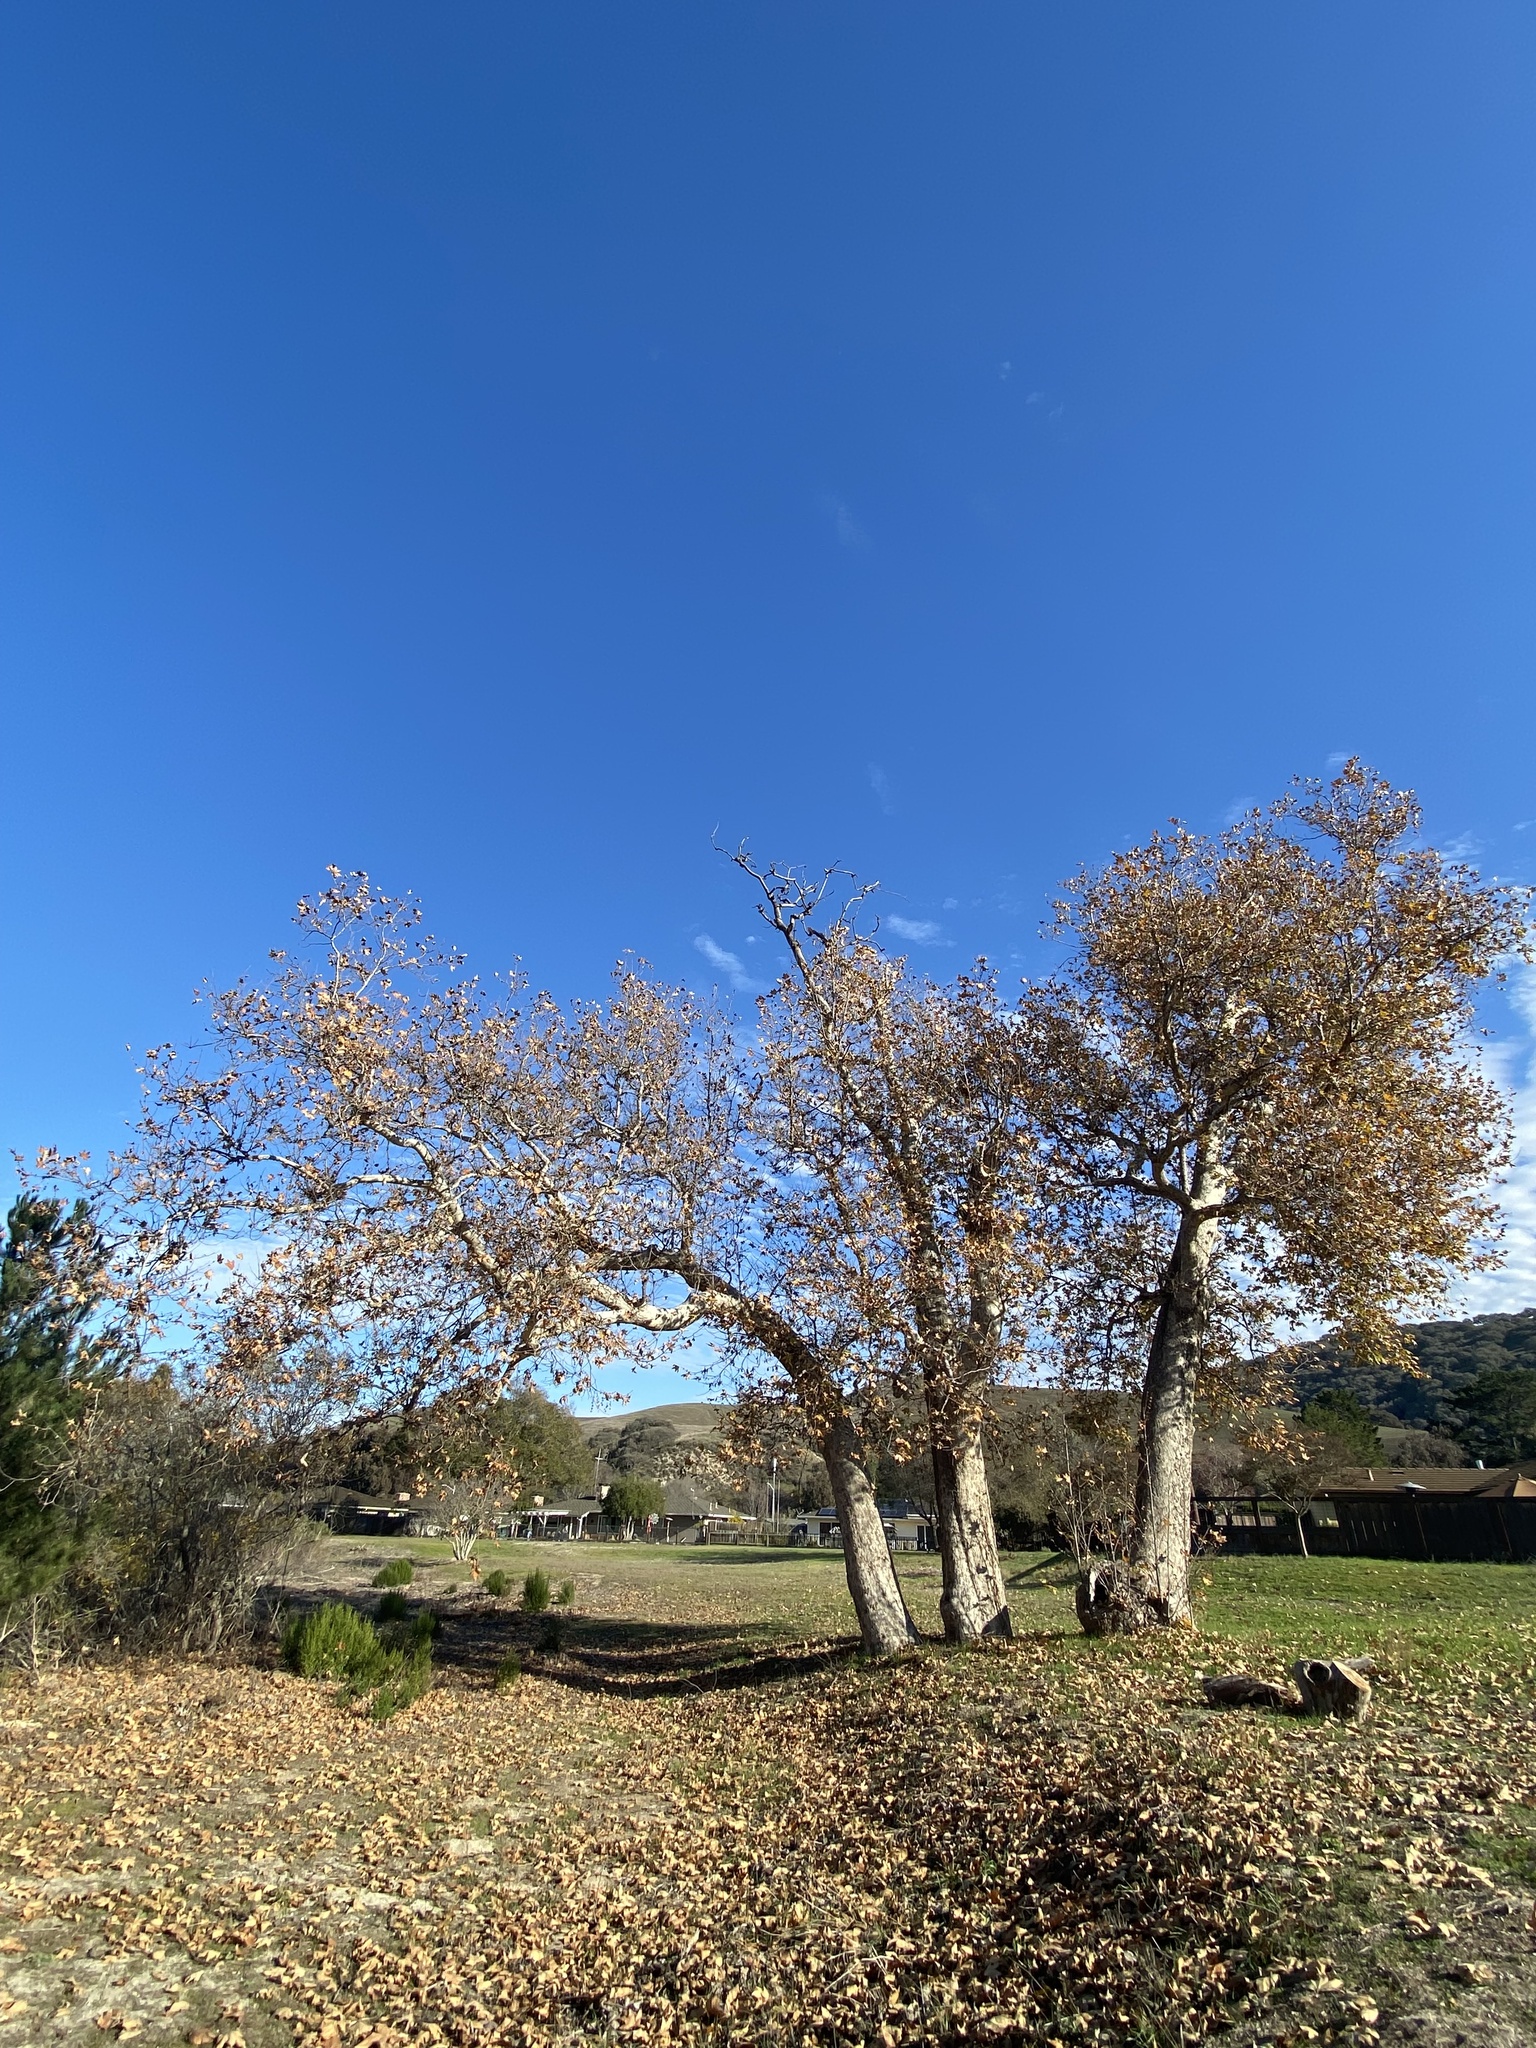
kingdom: Plantae
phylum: Tracheophyta
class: Magnoliopsida
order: Proteales
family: Platanaceae
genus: Platanus
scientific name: Platanus racemosa
